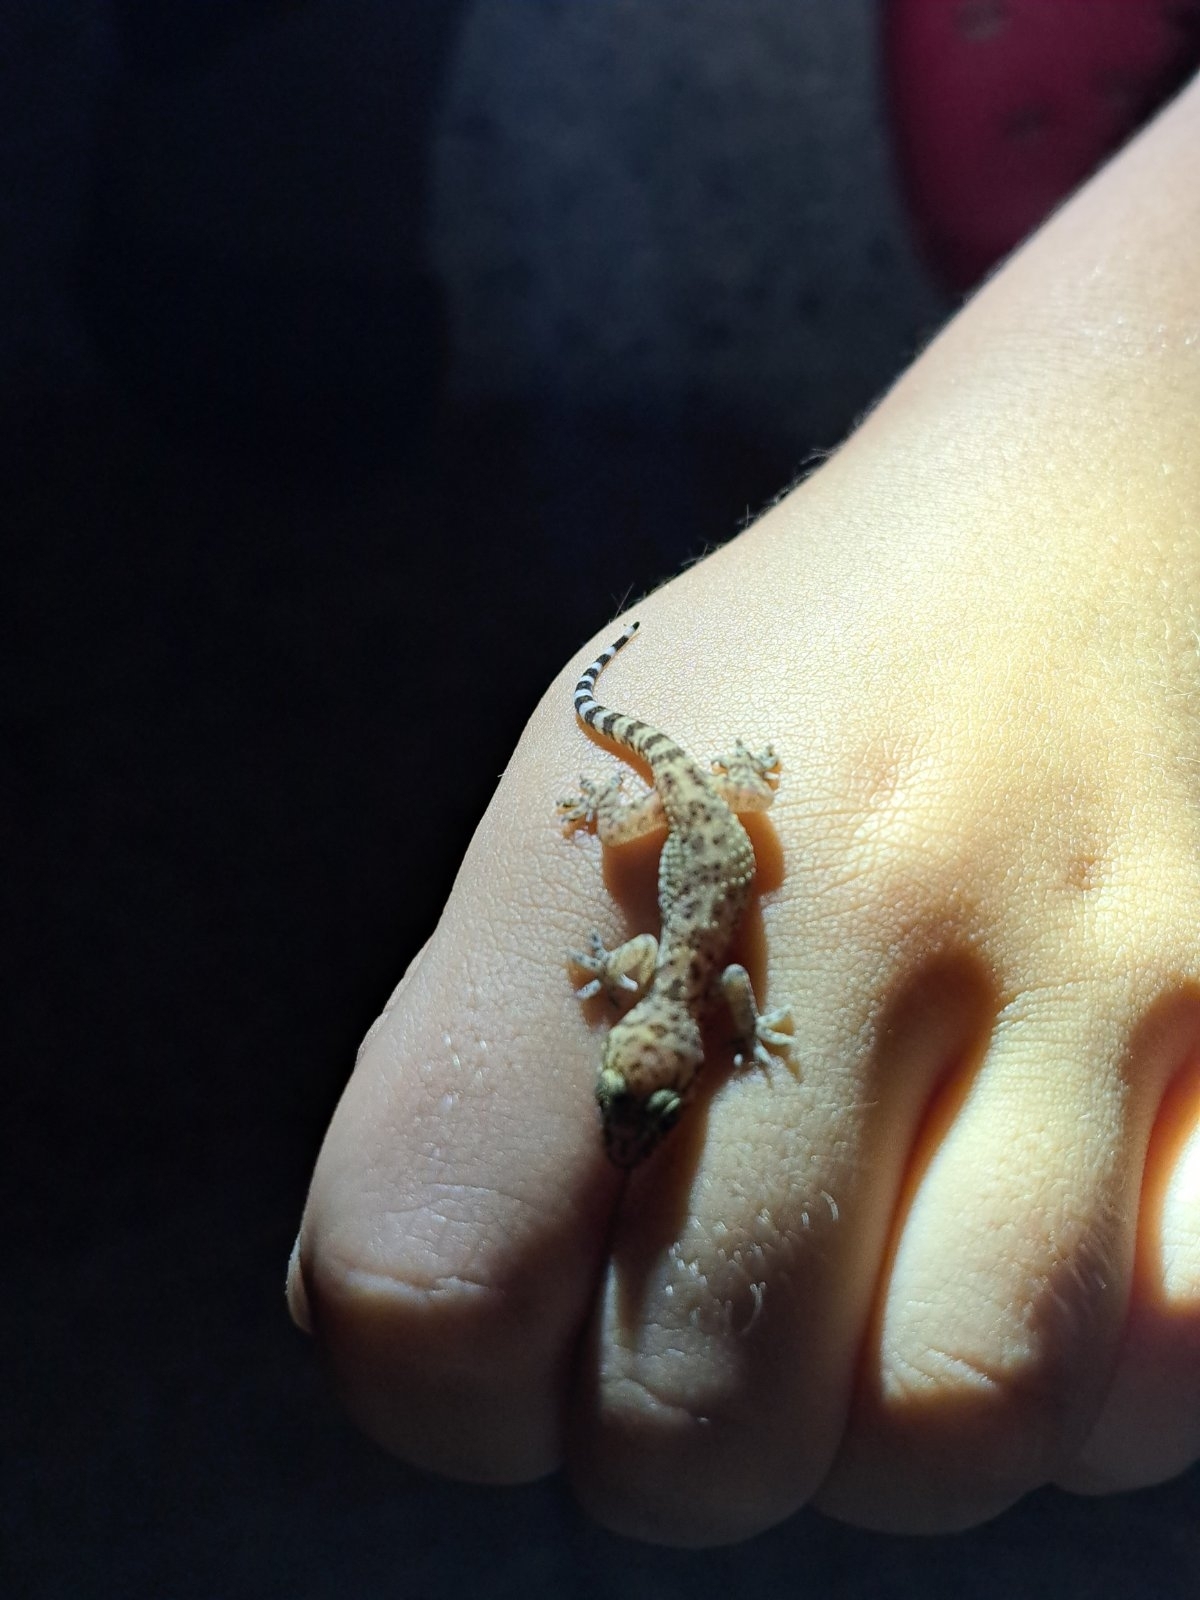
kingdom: Animalia
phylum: Chordata
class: Squamata
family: Gekkonidae
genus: Hemidactylus
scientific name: Hemidactylus turcicus
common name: Turkish gecko
